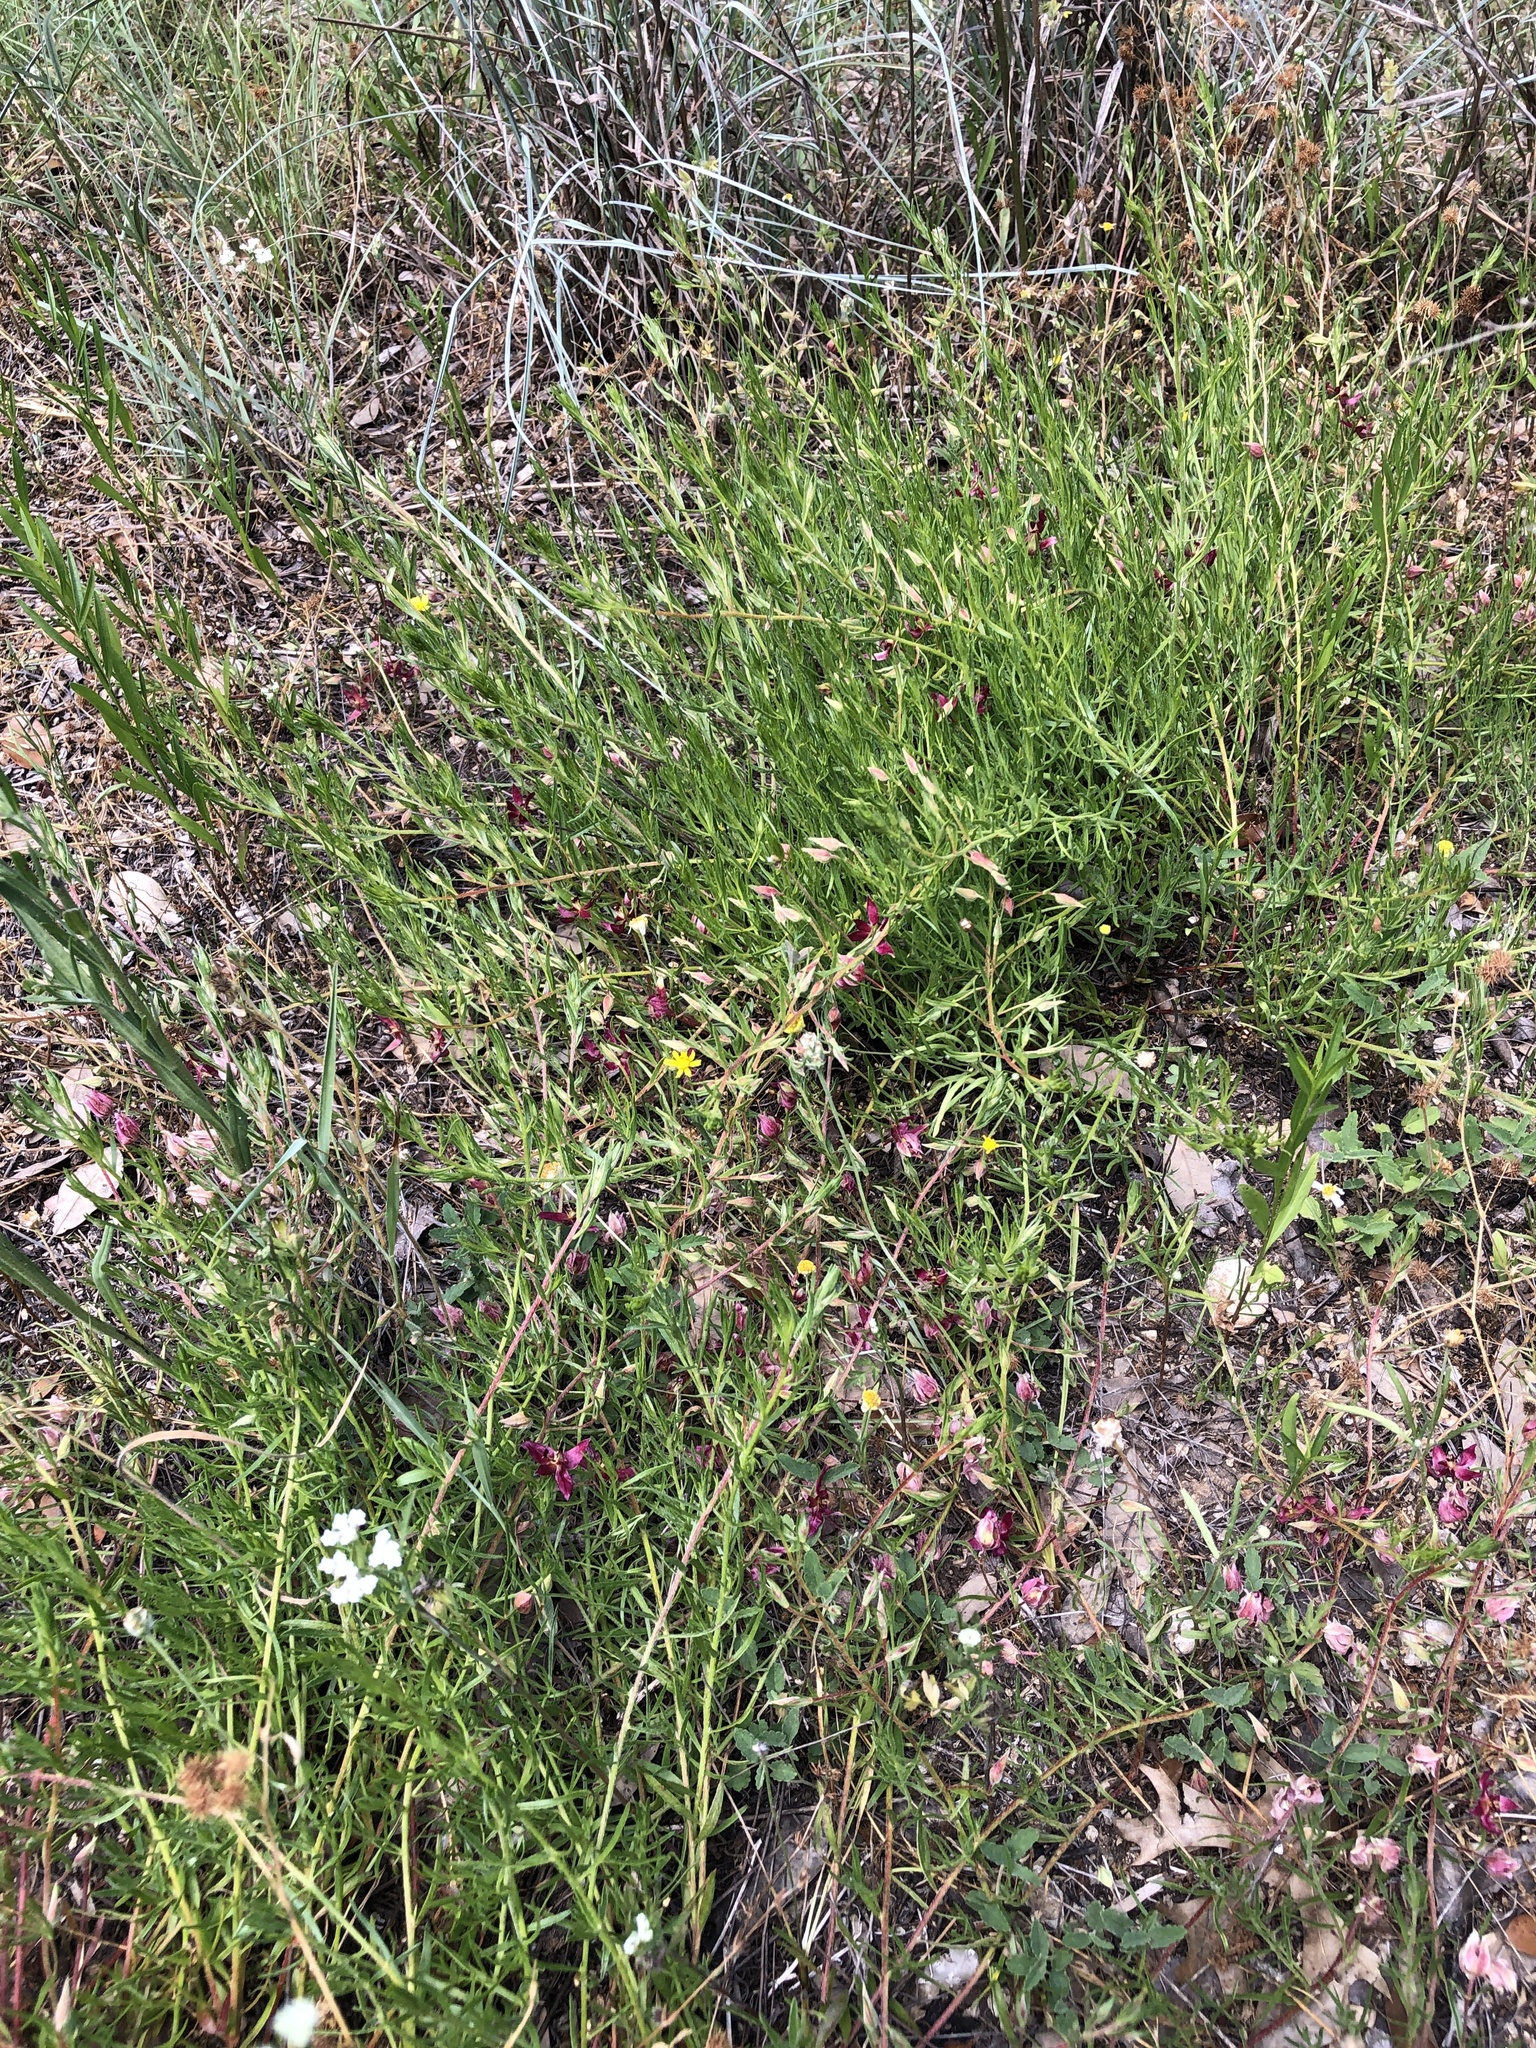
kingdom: Plantae
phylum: Tracheophyta
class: Magnoliopsida
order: Zygophyllales
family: Krameriaceae
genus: Krameria
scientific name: Krameria lanceolata
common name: Ratany
